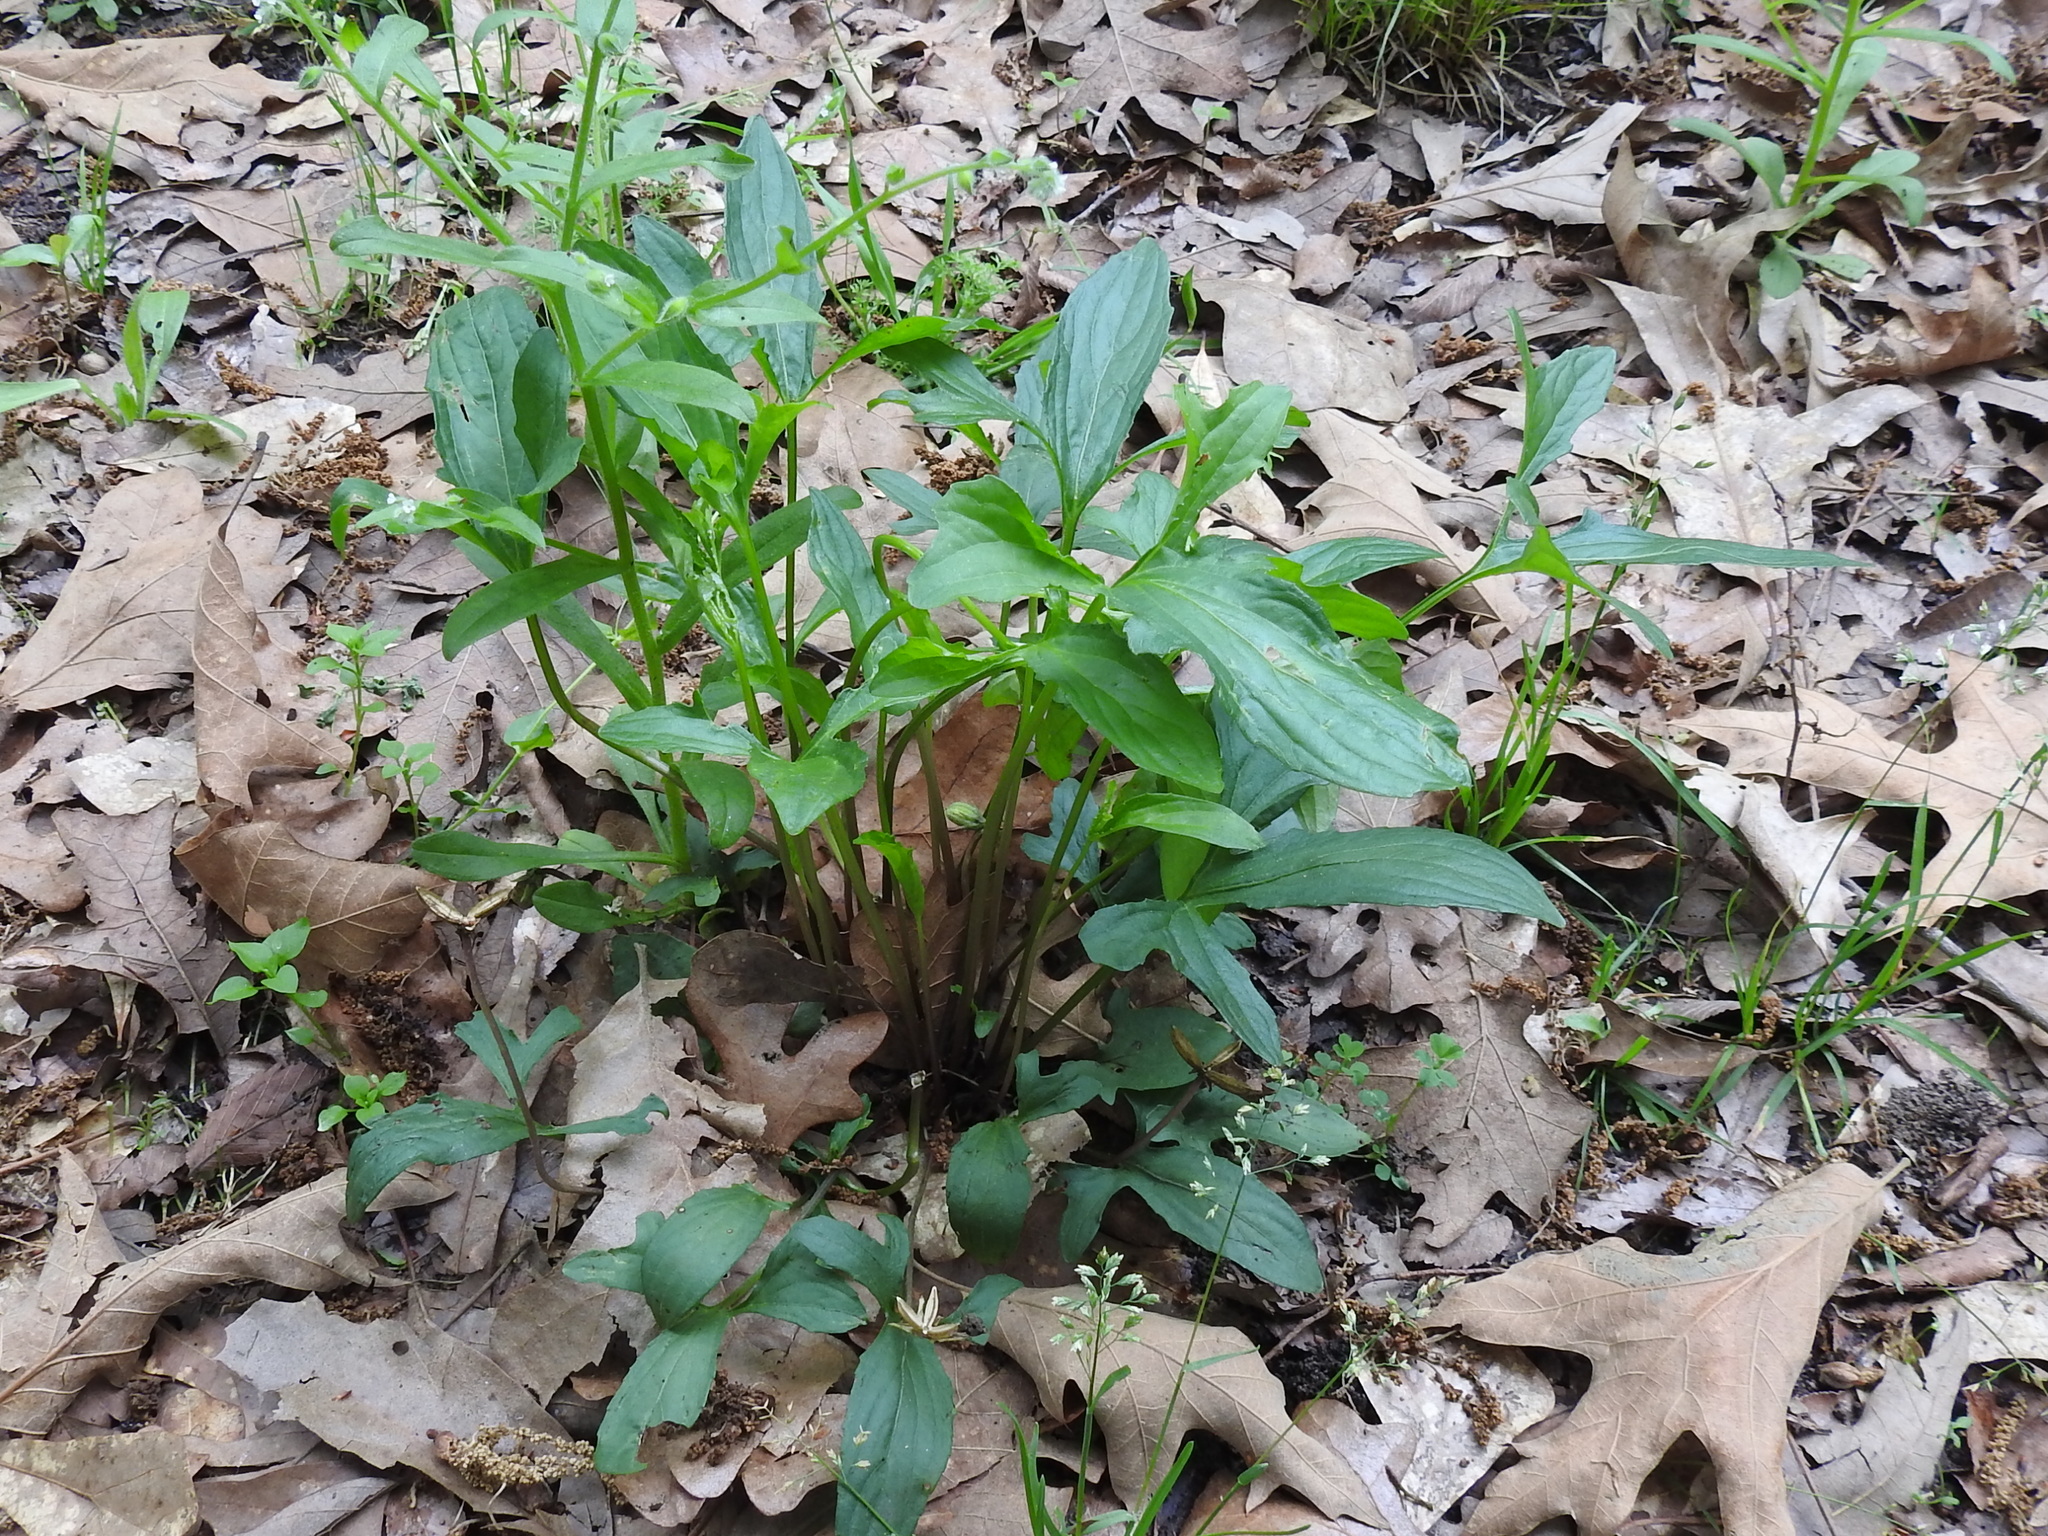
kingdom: Plantae
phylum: Tracheophyta
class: Magnoliopsida
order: Malpighiales
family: Violaceae
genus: Viola
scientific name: Viola palmata
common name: Early blue violet
